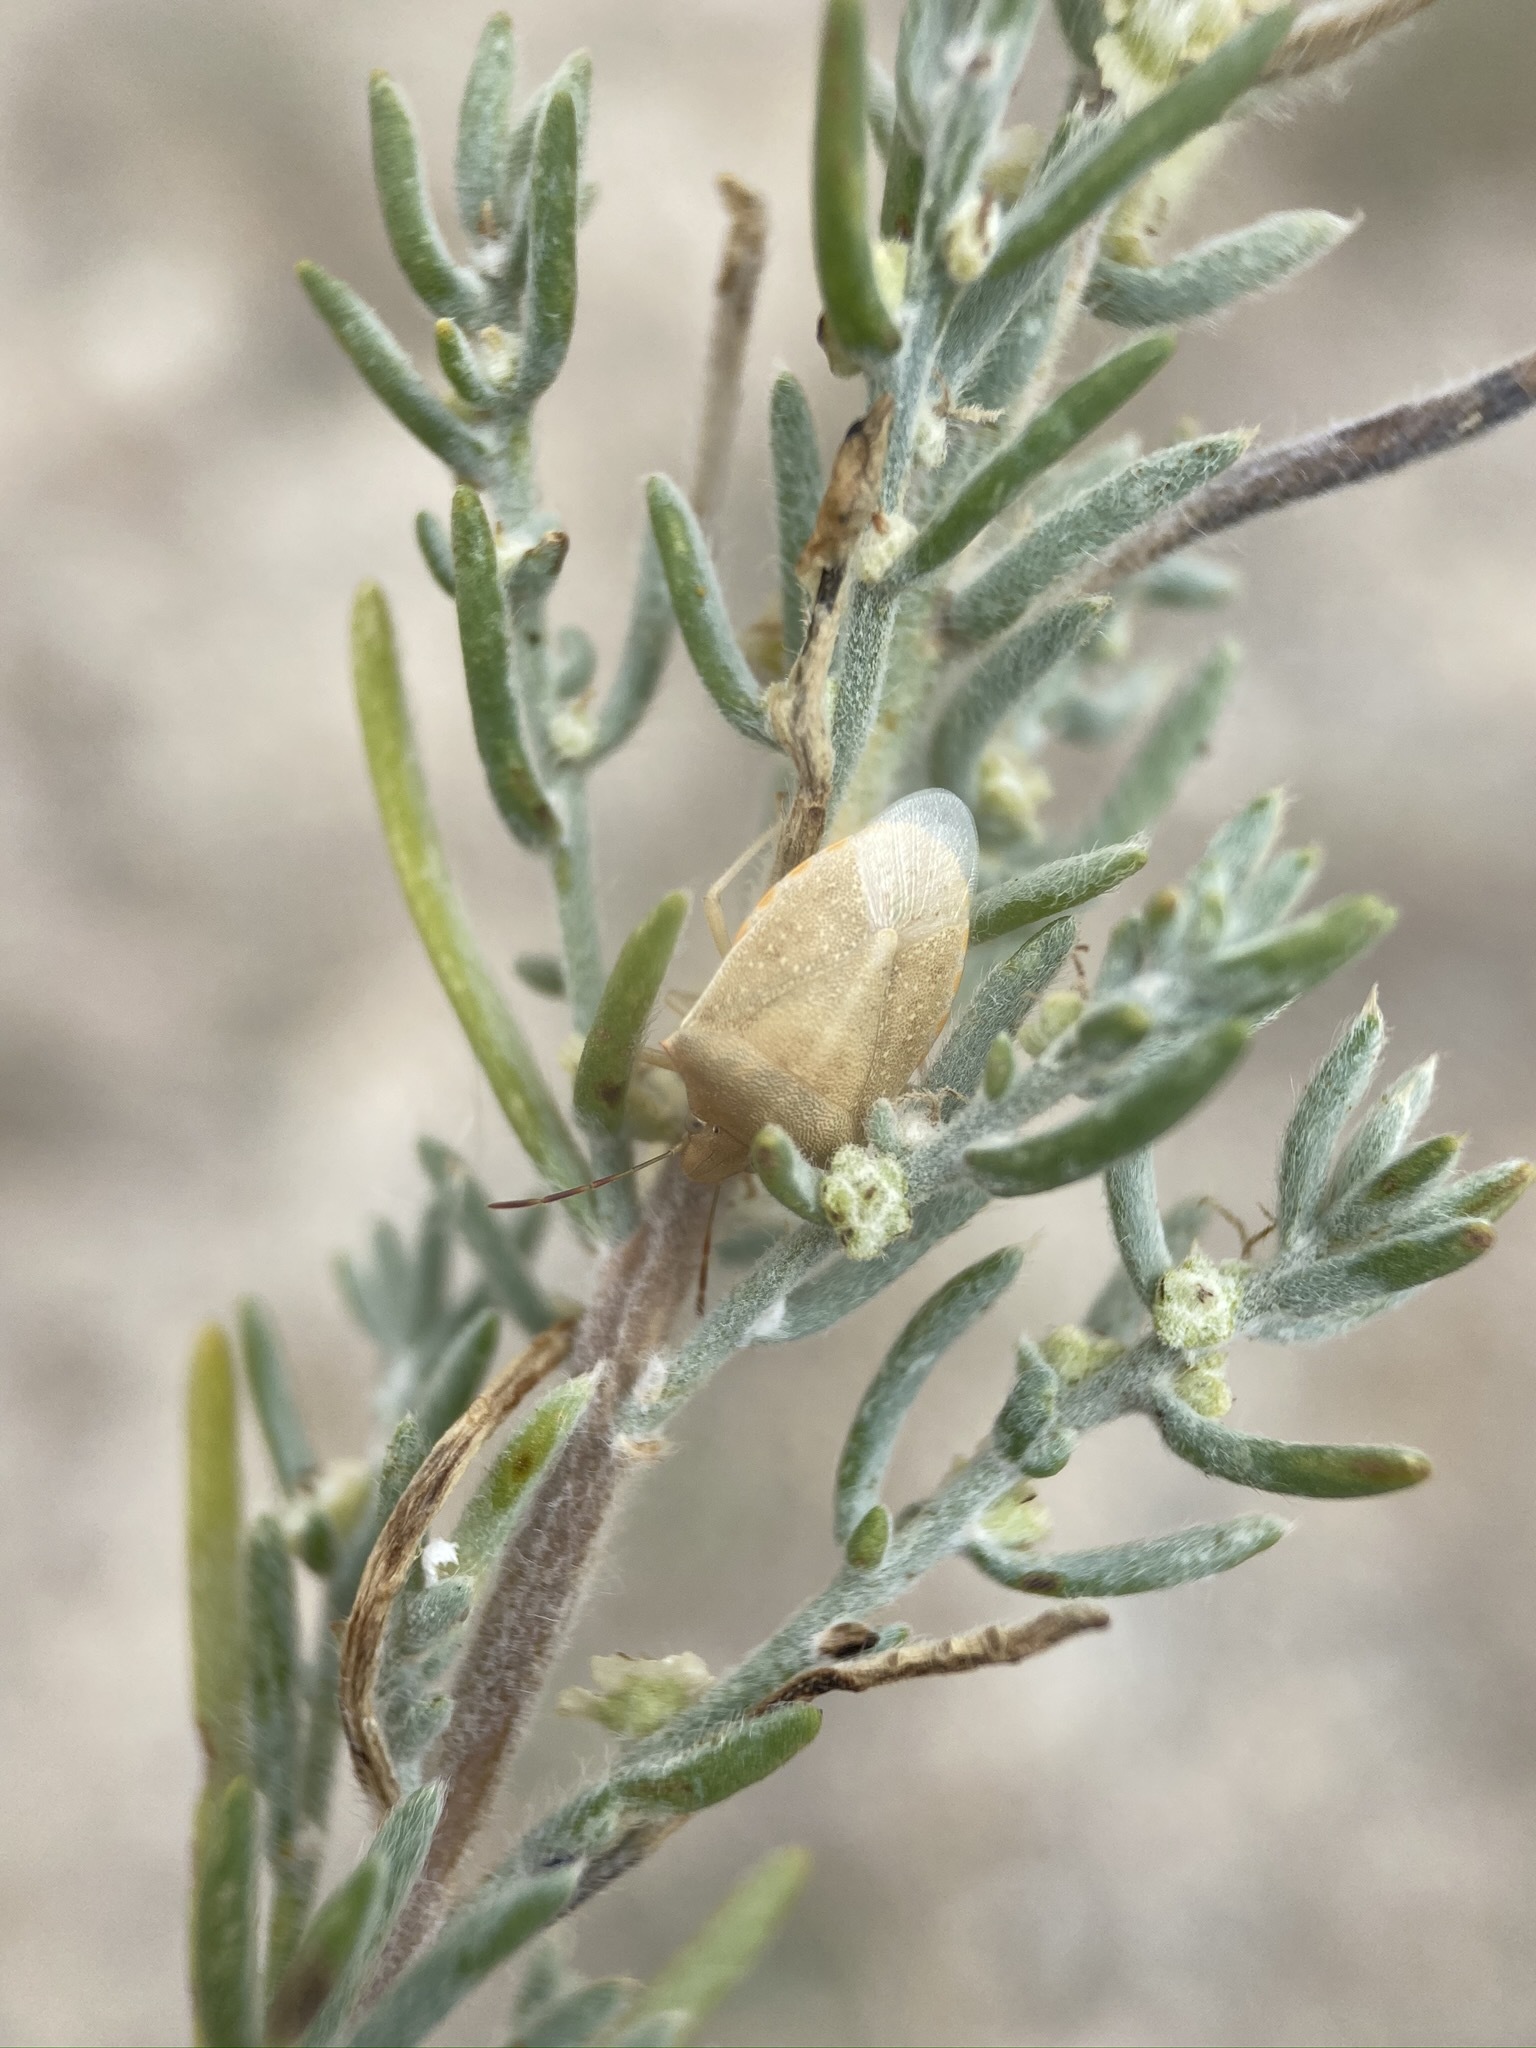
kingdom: Animalia
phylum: Arthropoda
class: Insecta
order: Hemiptera
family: Pentatomidae
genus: Thyanta
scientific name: Thyanta custator
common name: Stink bug
